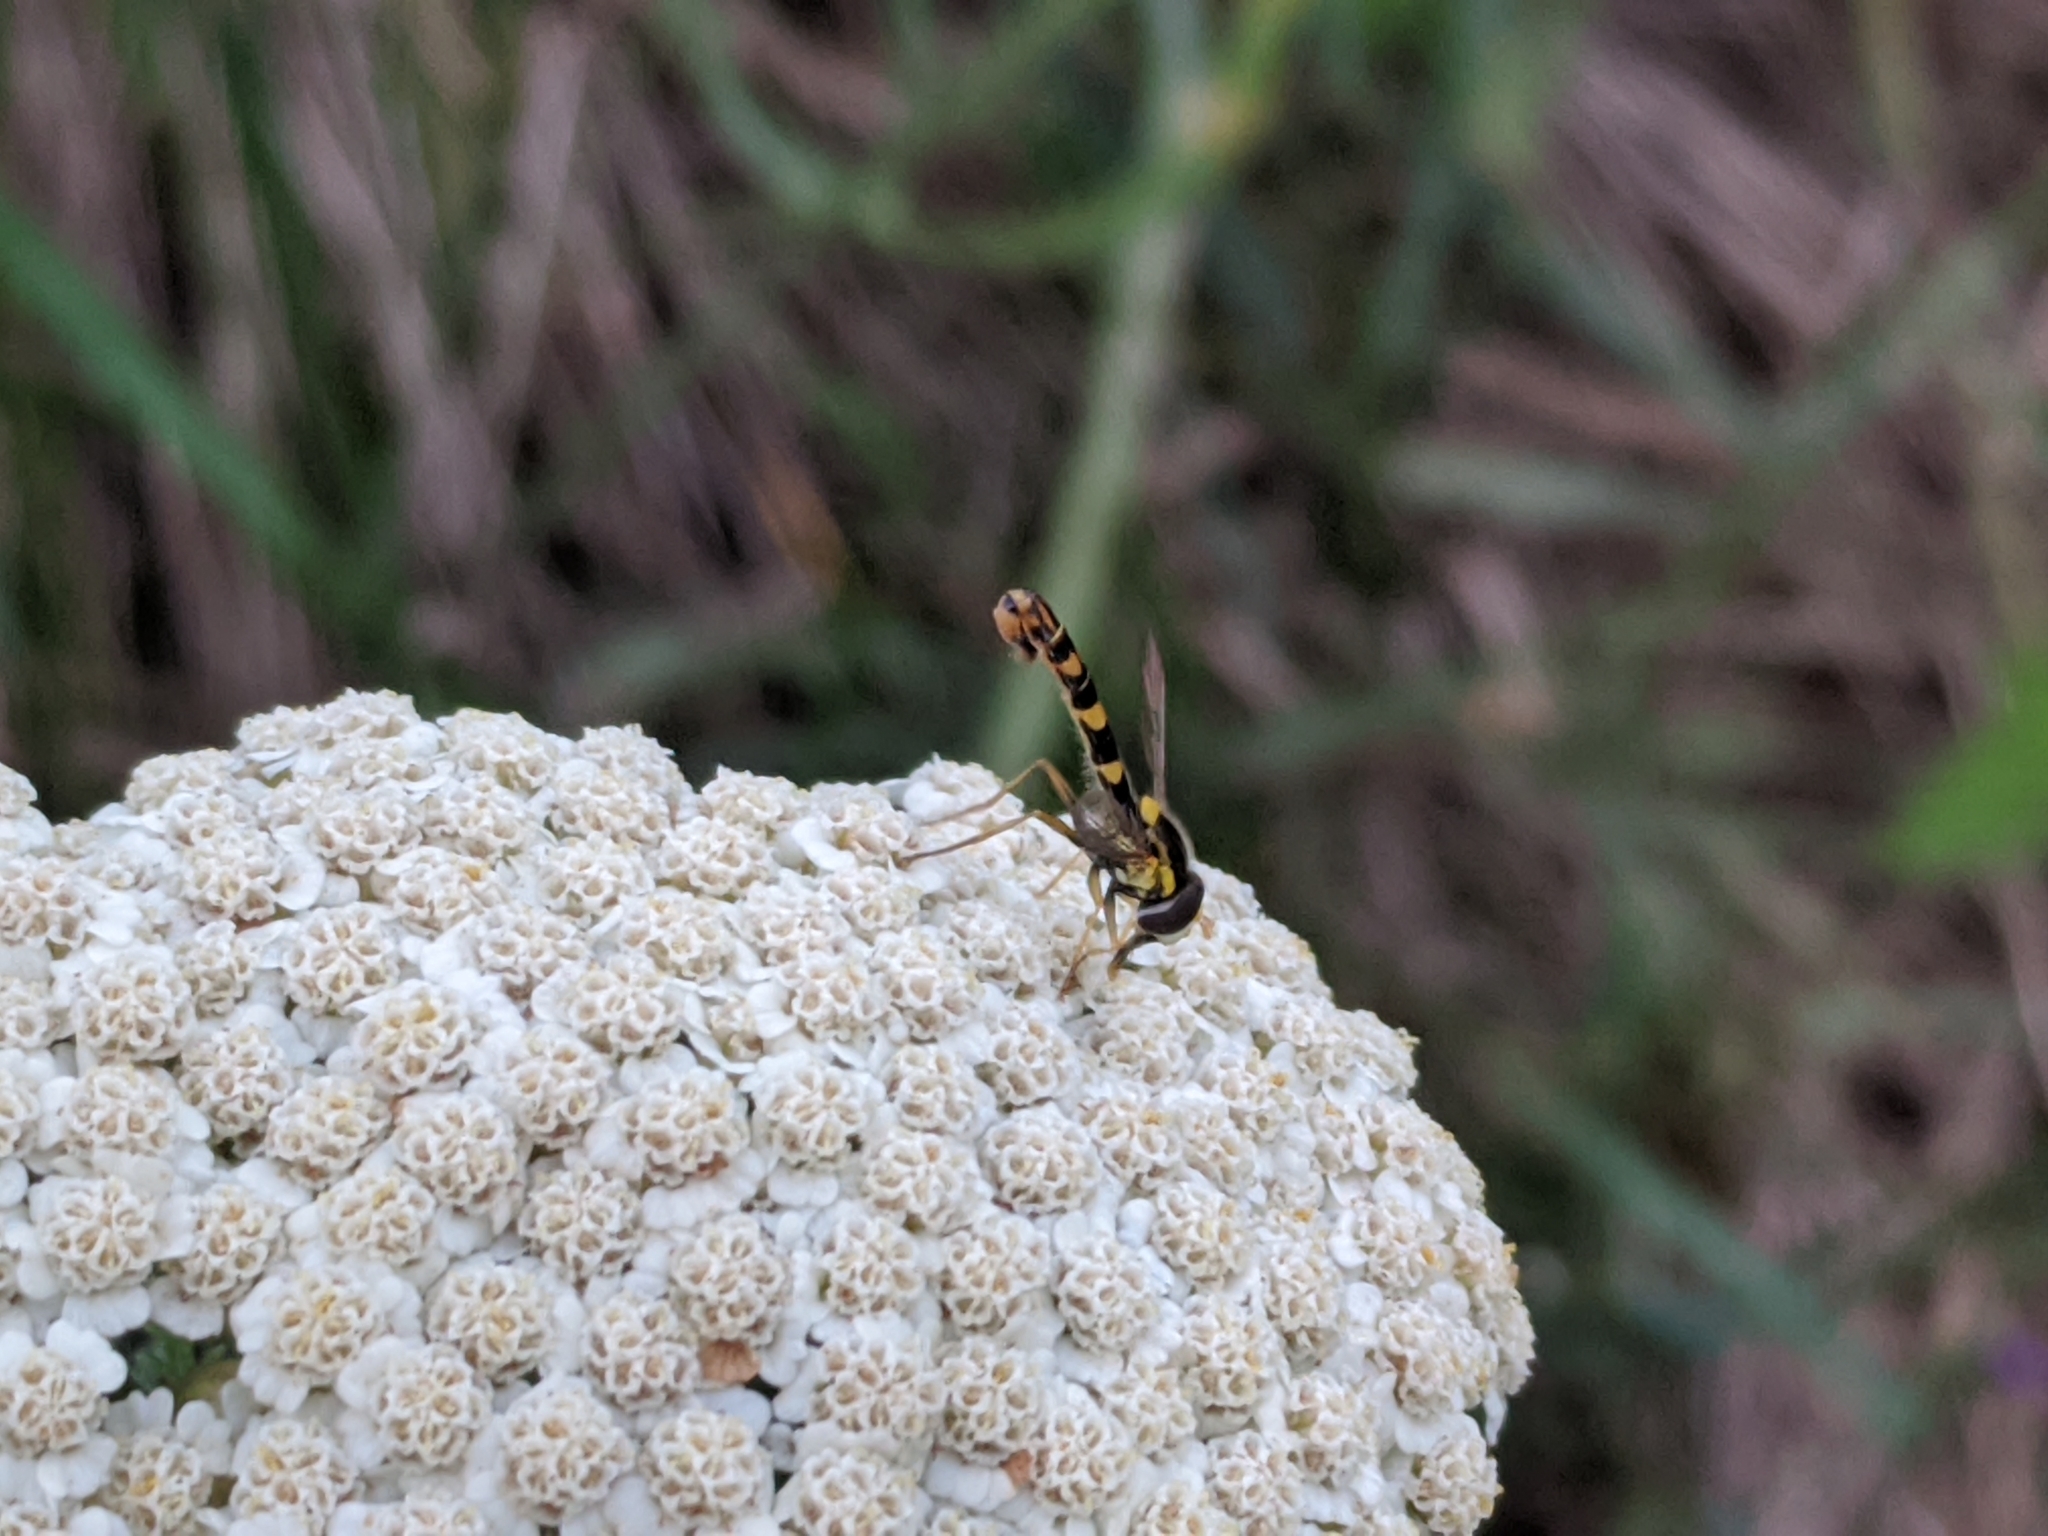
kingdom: Animalia
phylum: Arthropoda
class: Insecta
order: Diptera
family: Syrphidae
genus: Sphaerophoria
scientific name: Sphaerophoria scripta
